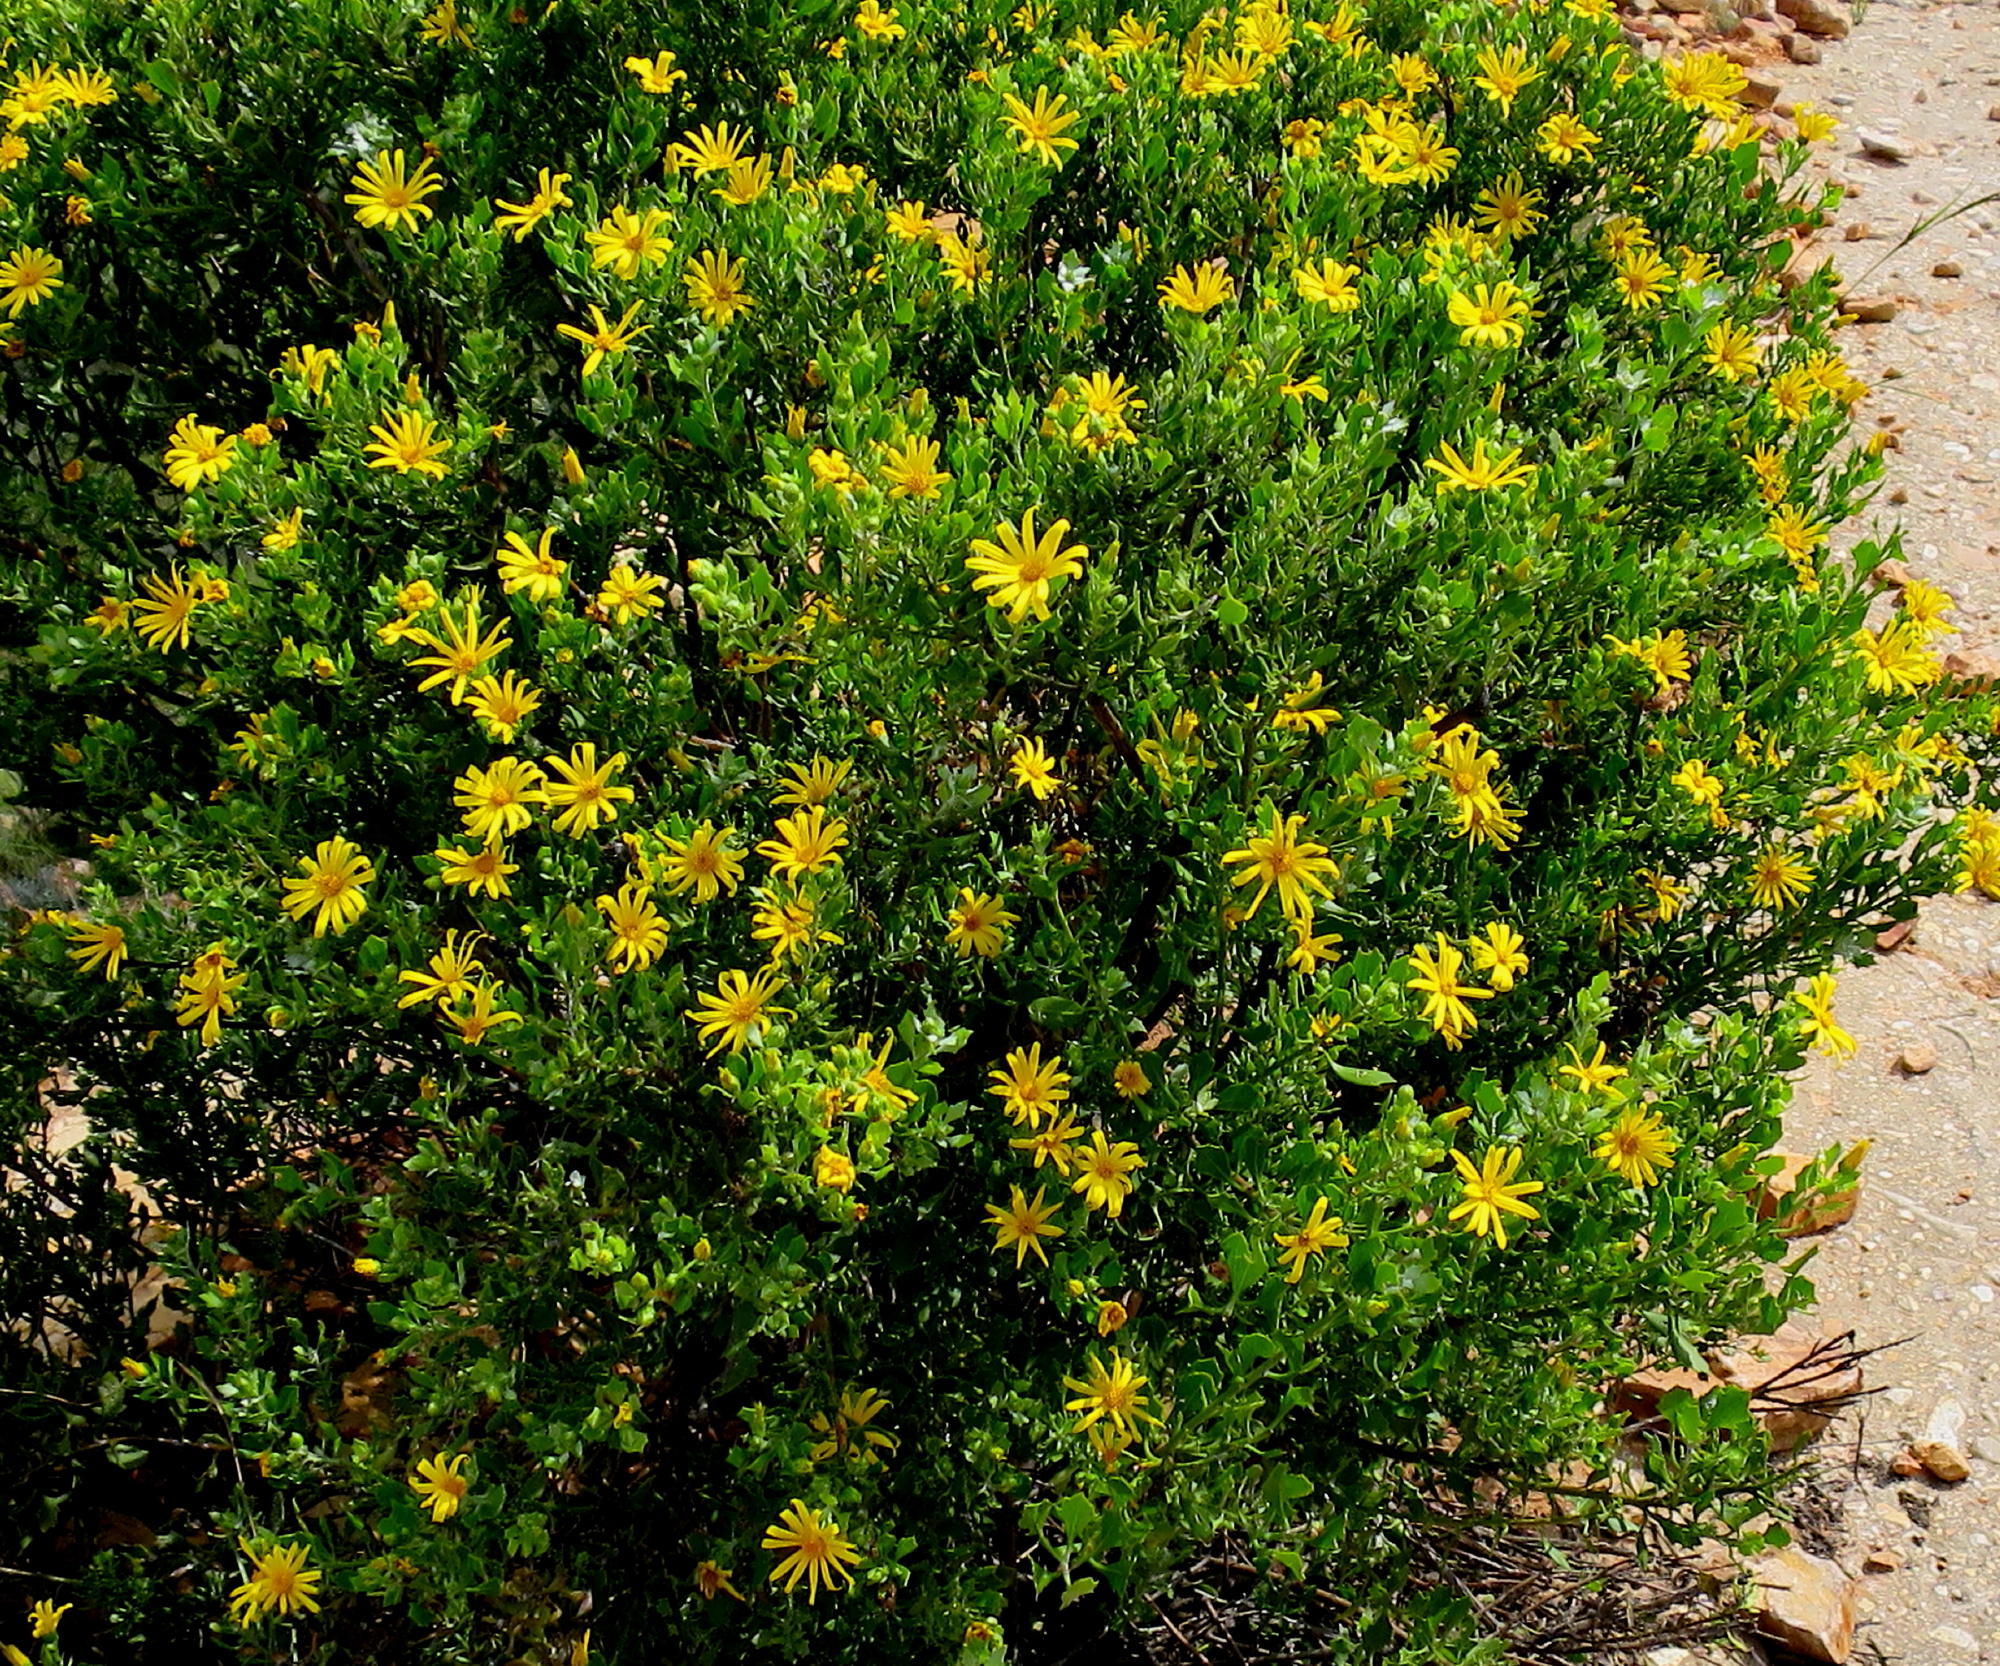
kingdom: Plantae
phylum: Tracheophyta
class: Magnoliopsida
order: Asterales
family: Asteraceae
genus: Osteospermum
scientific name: Osteospermum moniliferum
